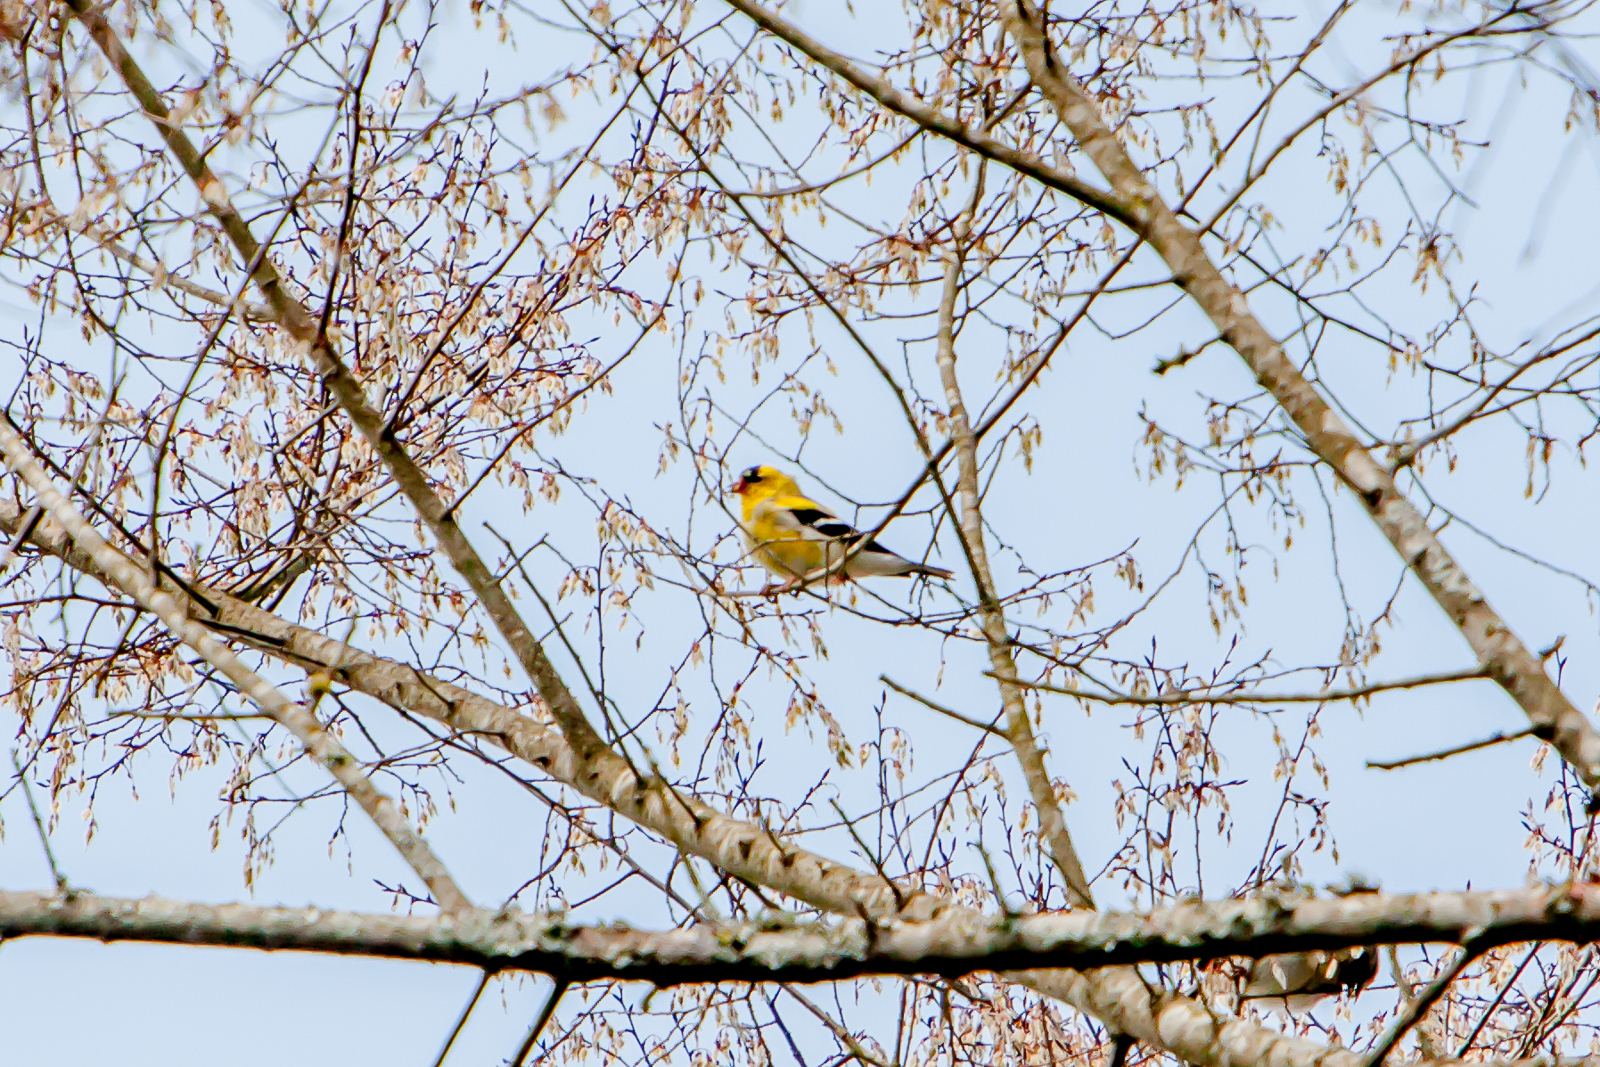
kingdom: Animalia
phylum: Chordata
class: Aves
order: Passeriformes
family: Fringillidae
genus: Spinus
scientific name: Spinus tristis
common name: American goldfinch
